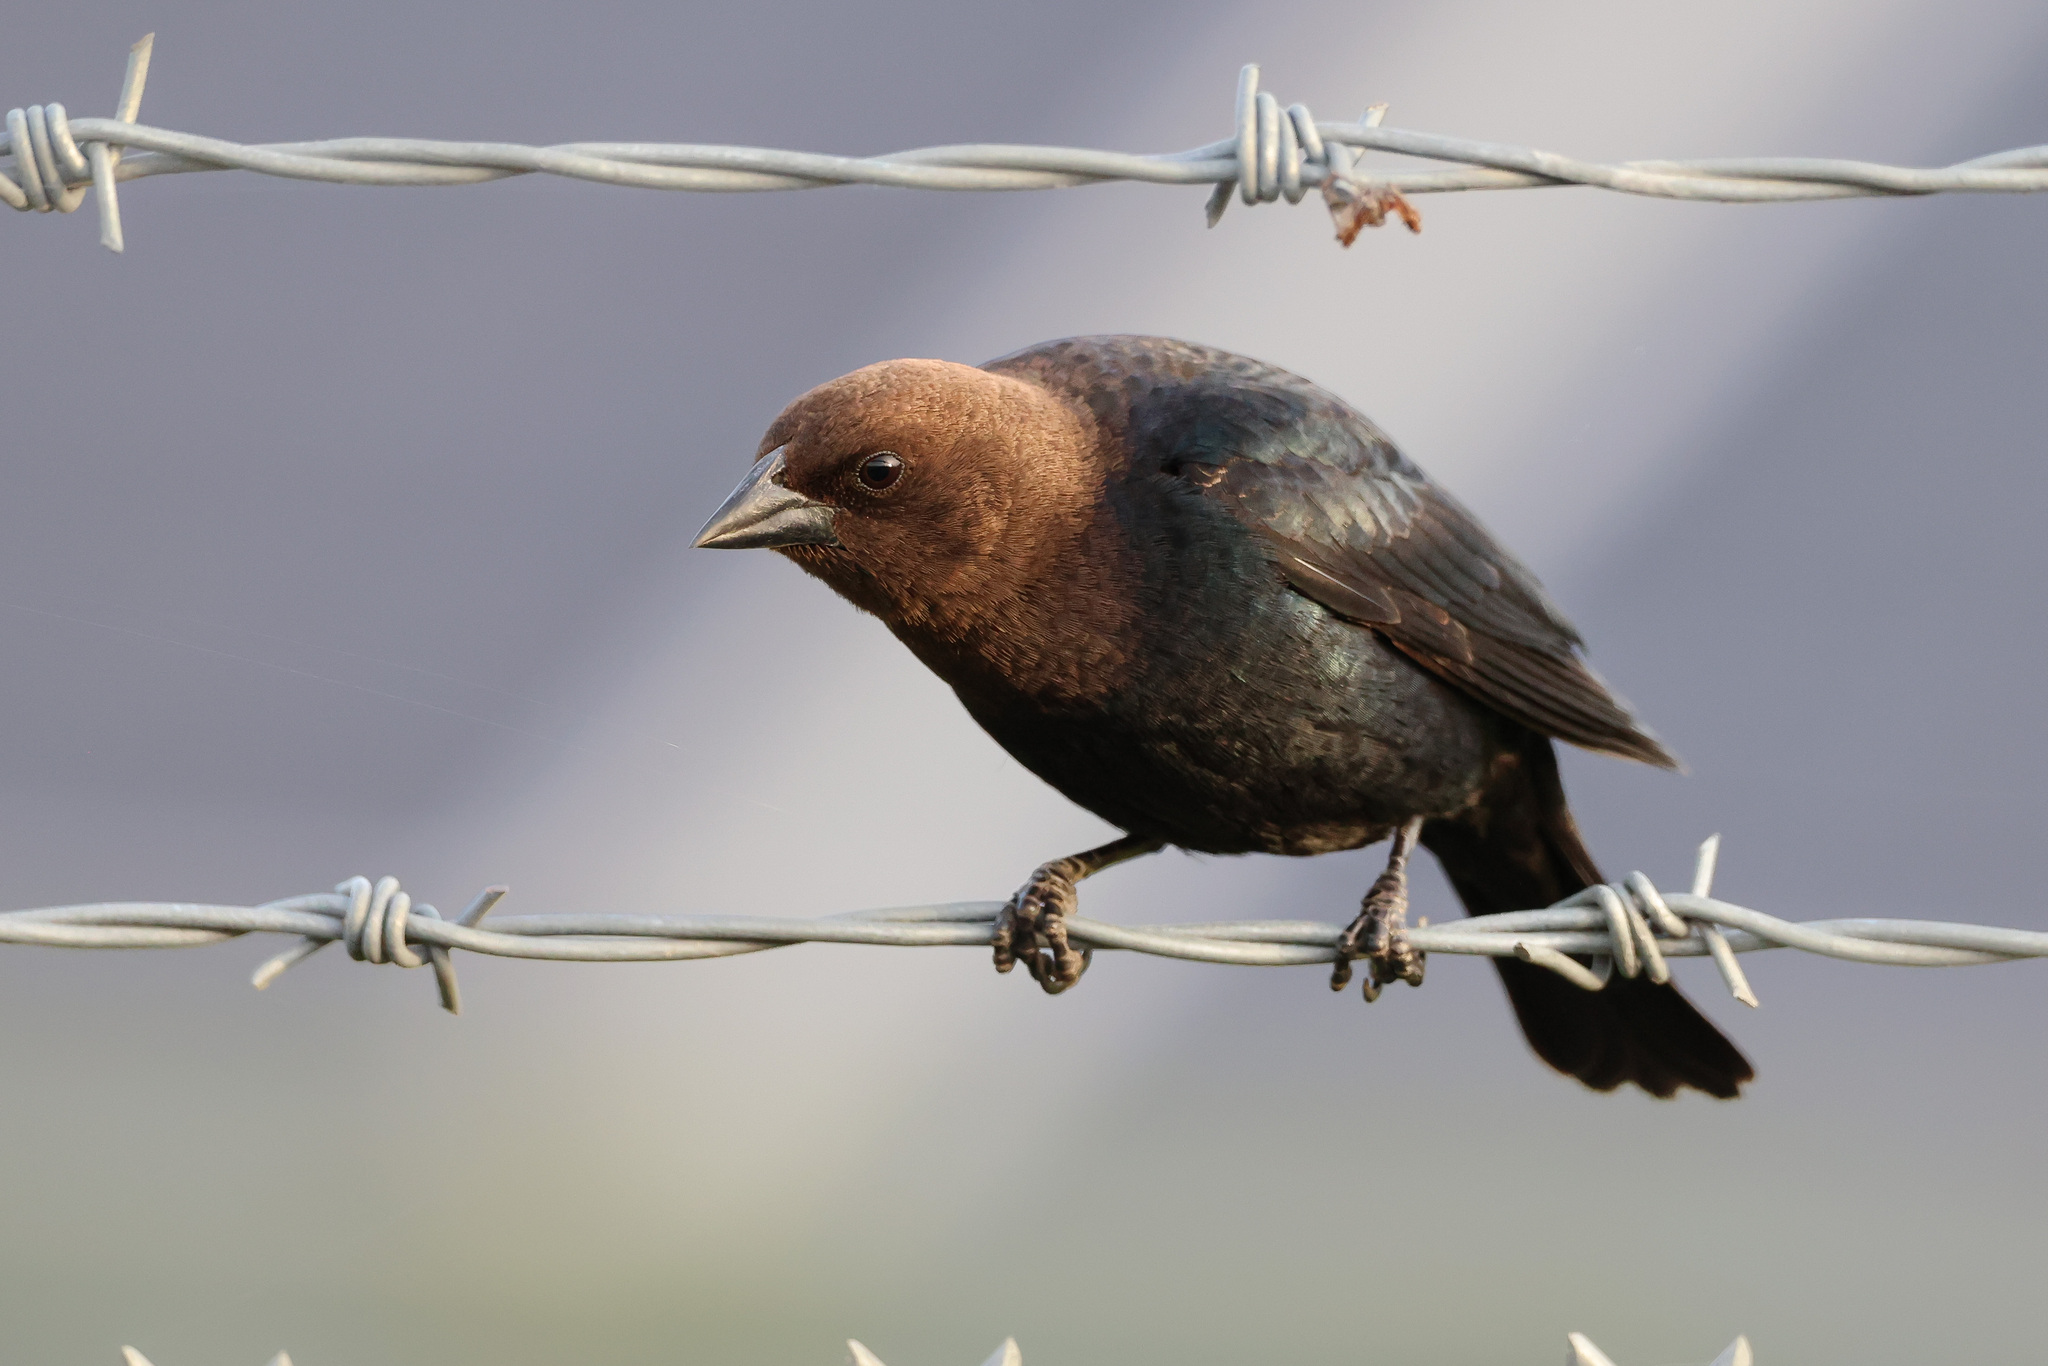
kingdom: Animalia
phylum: Chordata
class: Aves
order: Passeriformes
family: Icteridae
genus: Molothrus
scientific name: Molothrus ater
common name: Brown-headed cowbird
